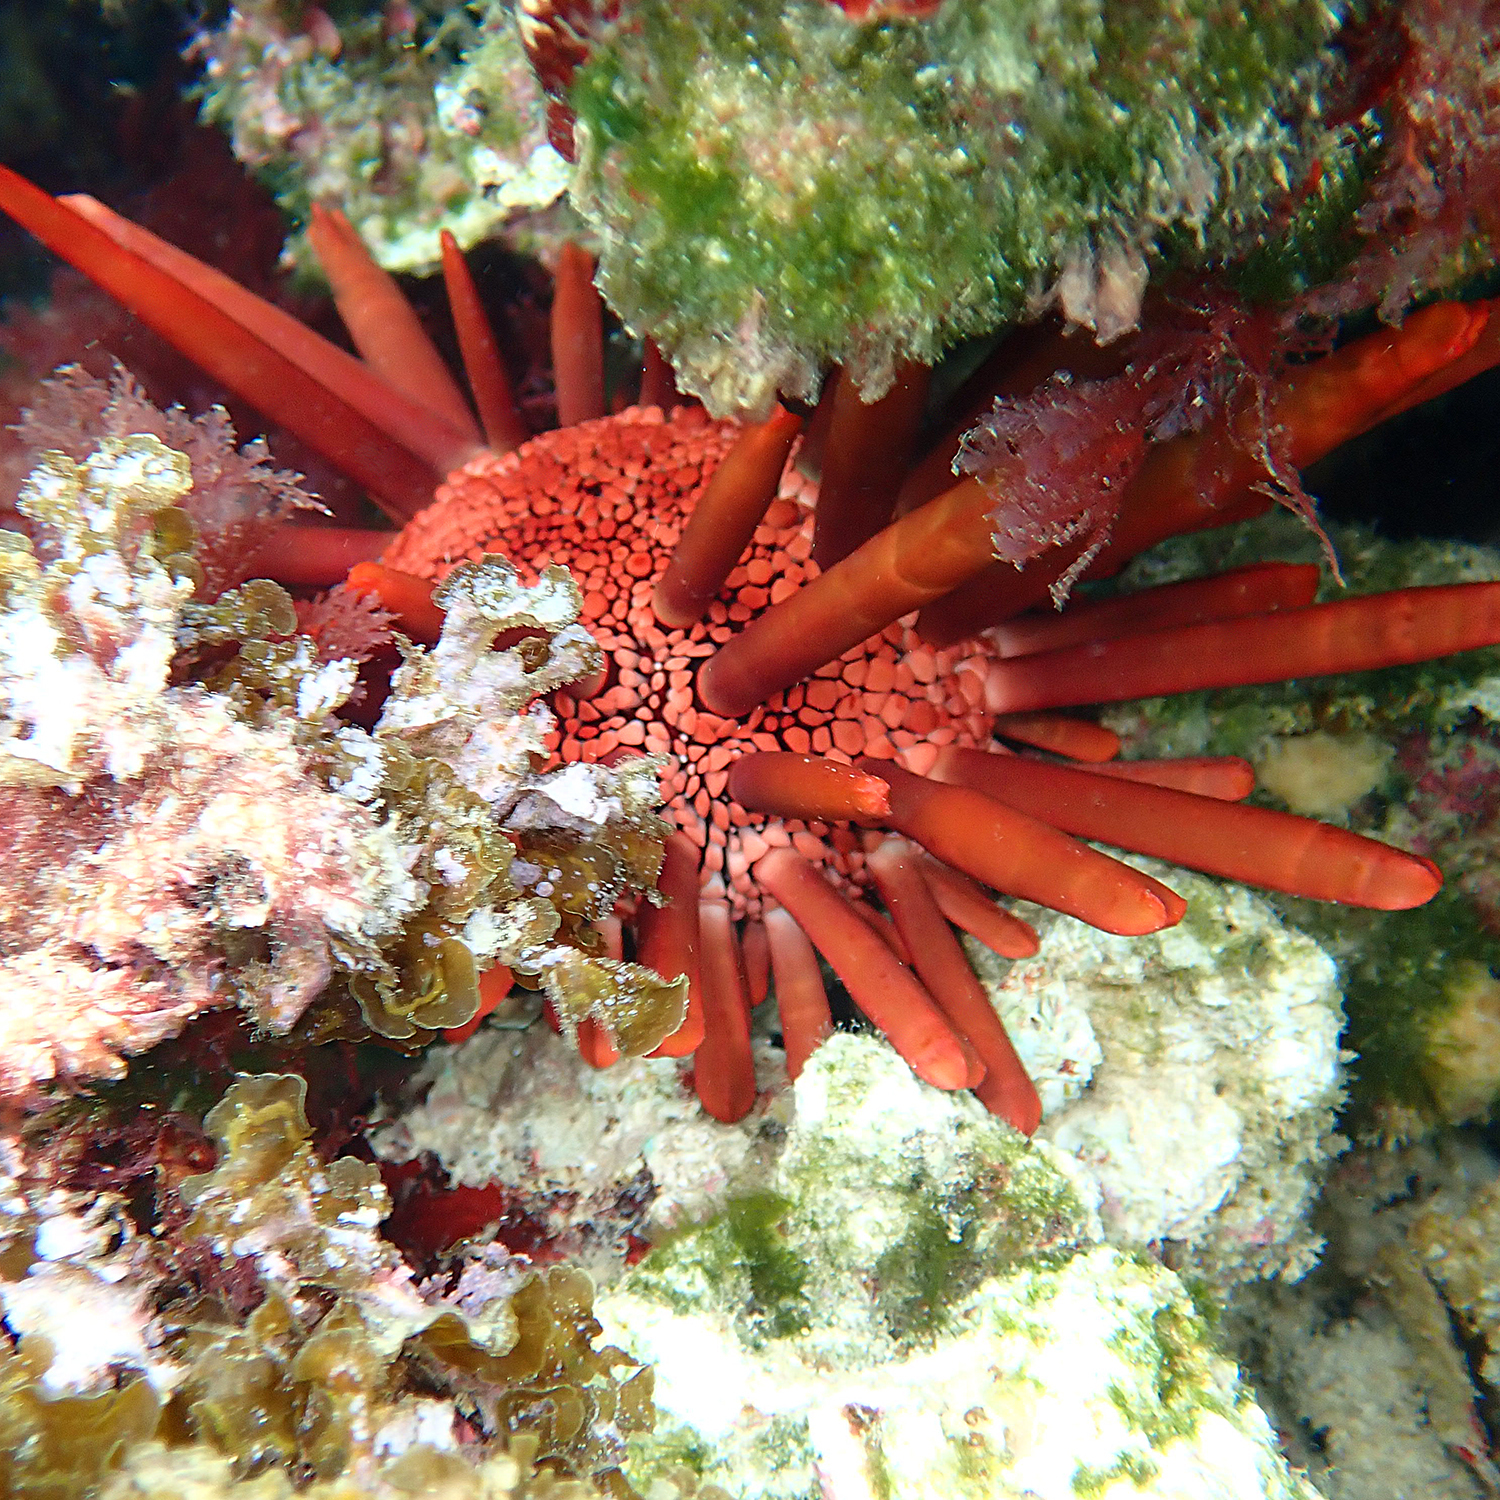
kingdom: Animalia
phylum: Echinodermata
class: Echinoidea
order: Camarodonta
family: Echinometridae
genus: Heterocentrotus
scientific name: Heterocentrotus mamillatus
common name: Slate pencil urchin
